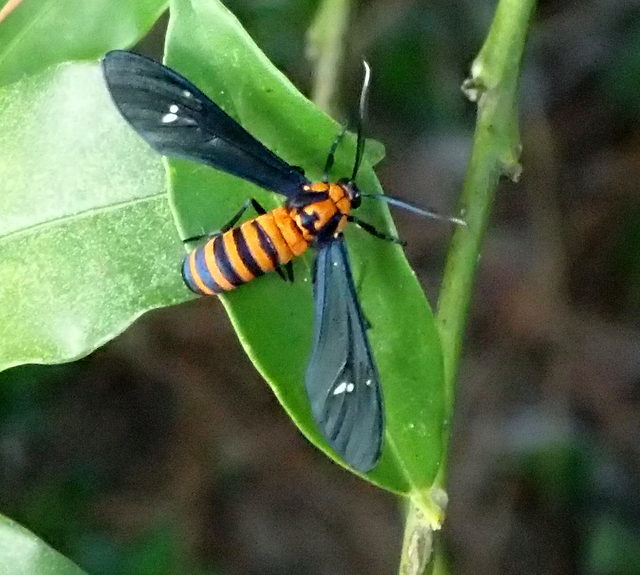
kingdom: Animalia
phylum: Arthropoda
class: Insecta
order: Lepidoptera
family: Erebidae
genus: Syntomeida
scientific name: Syntomeida ipomoeae
